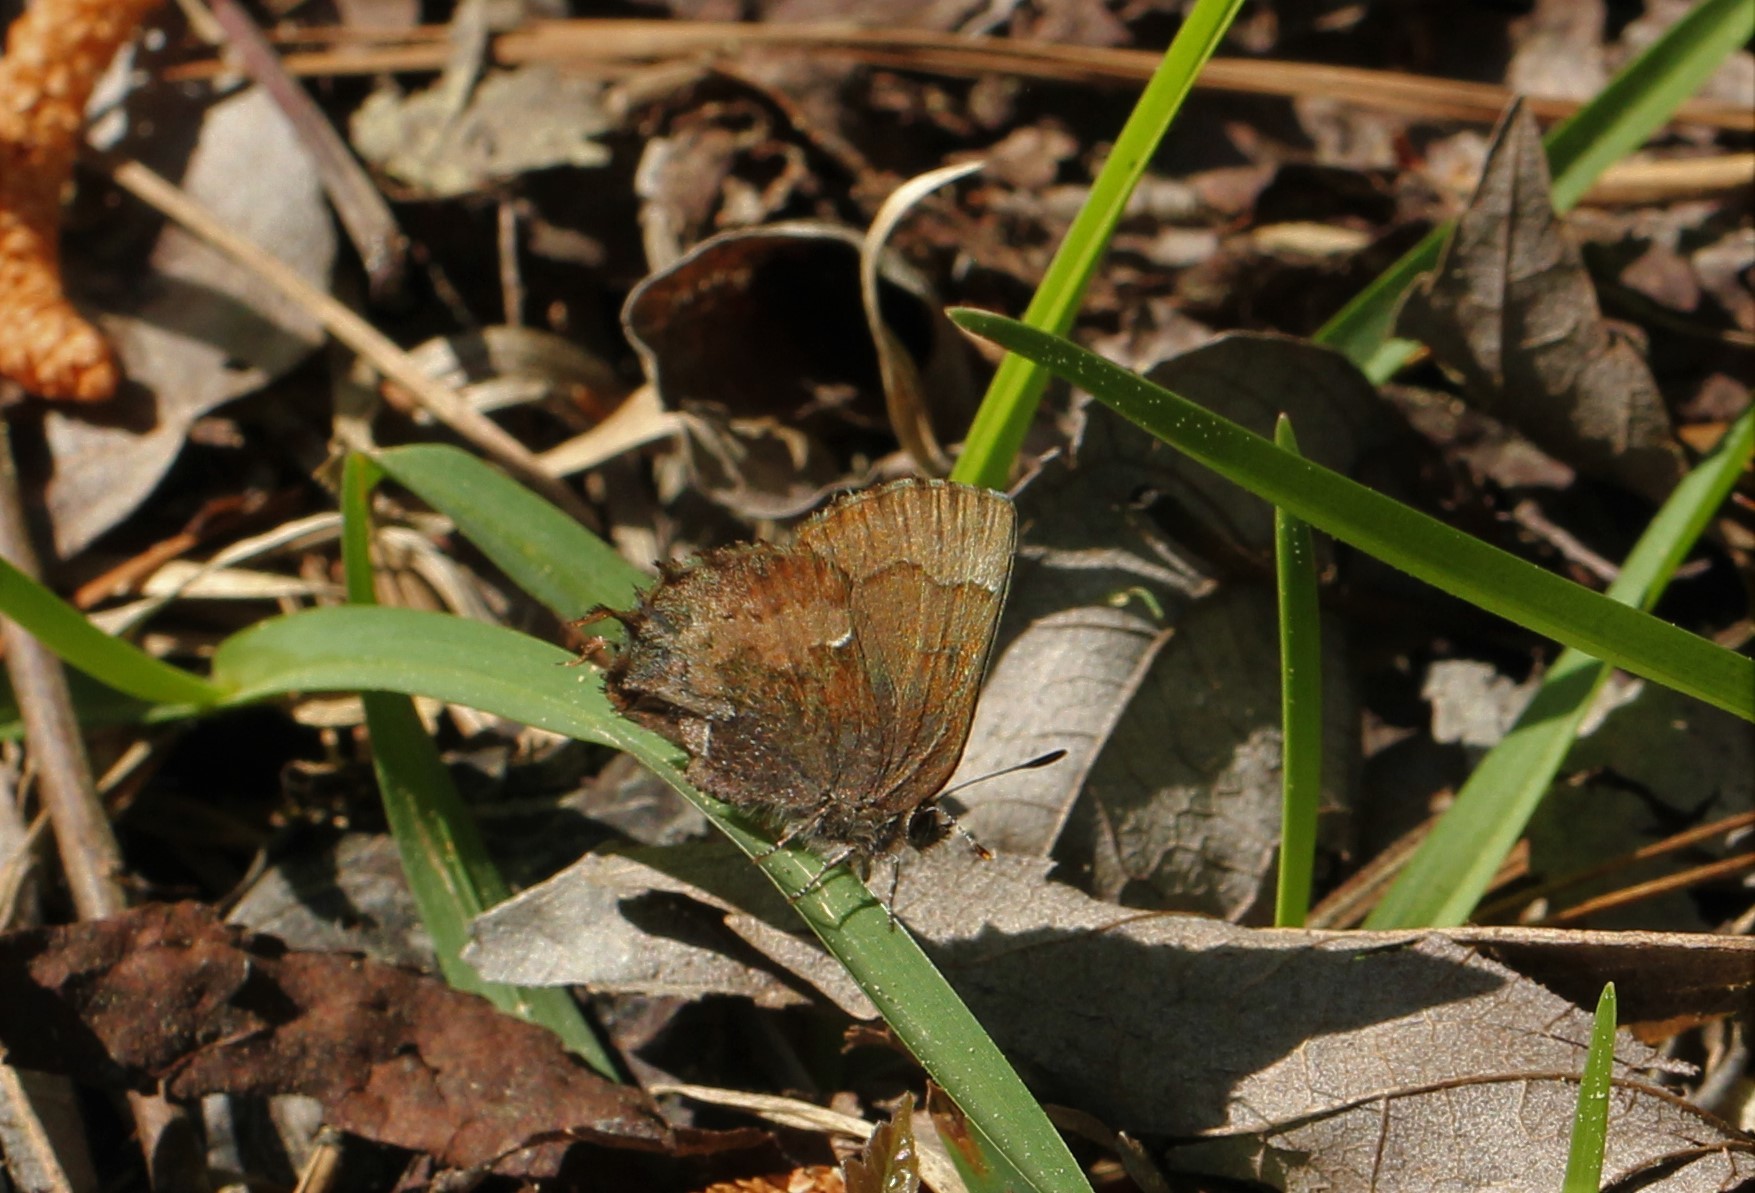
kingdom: Animalia
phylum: Arthropoda
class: Insecta
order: Lepidoptera
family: Lycaenidae
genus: Incisalia
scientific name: Incisalia henrici
